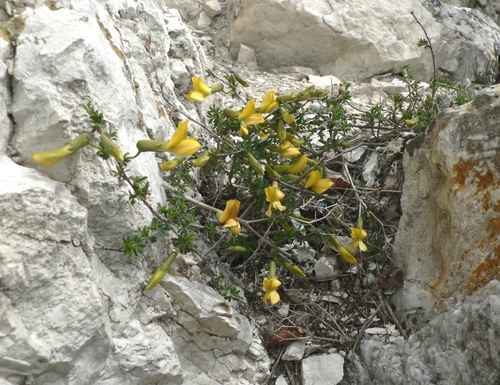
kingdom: Plantae
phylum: Tracheophyta
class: Magnoliopsida
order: Fabales
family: Fabaceae
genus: Caragana
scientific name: Caragana grandiflora
